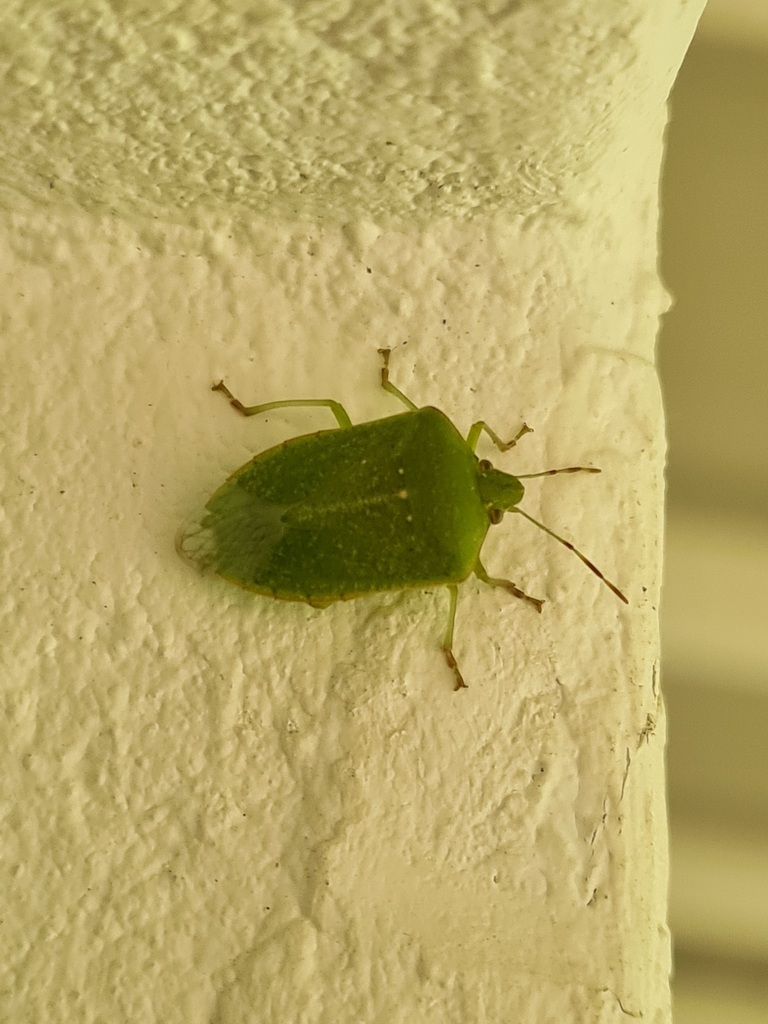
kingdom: Animalia
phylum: Arthropoda
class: Insecta
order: Hemiptera
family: Pentatomidae
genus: Nezara
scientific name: Nezara viridula
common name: Southern green stink bug
